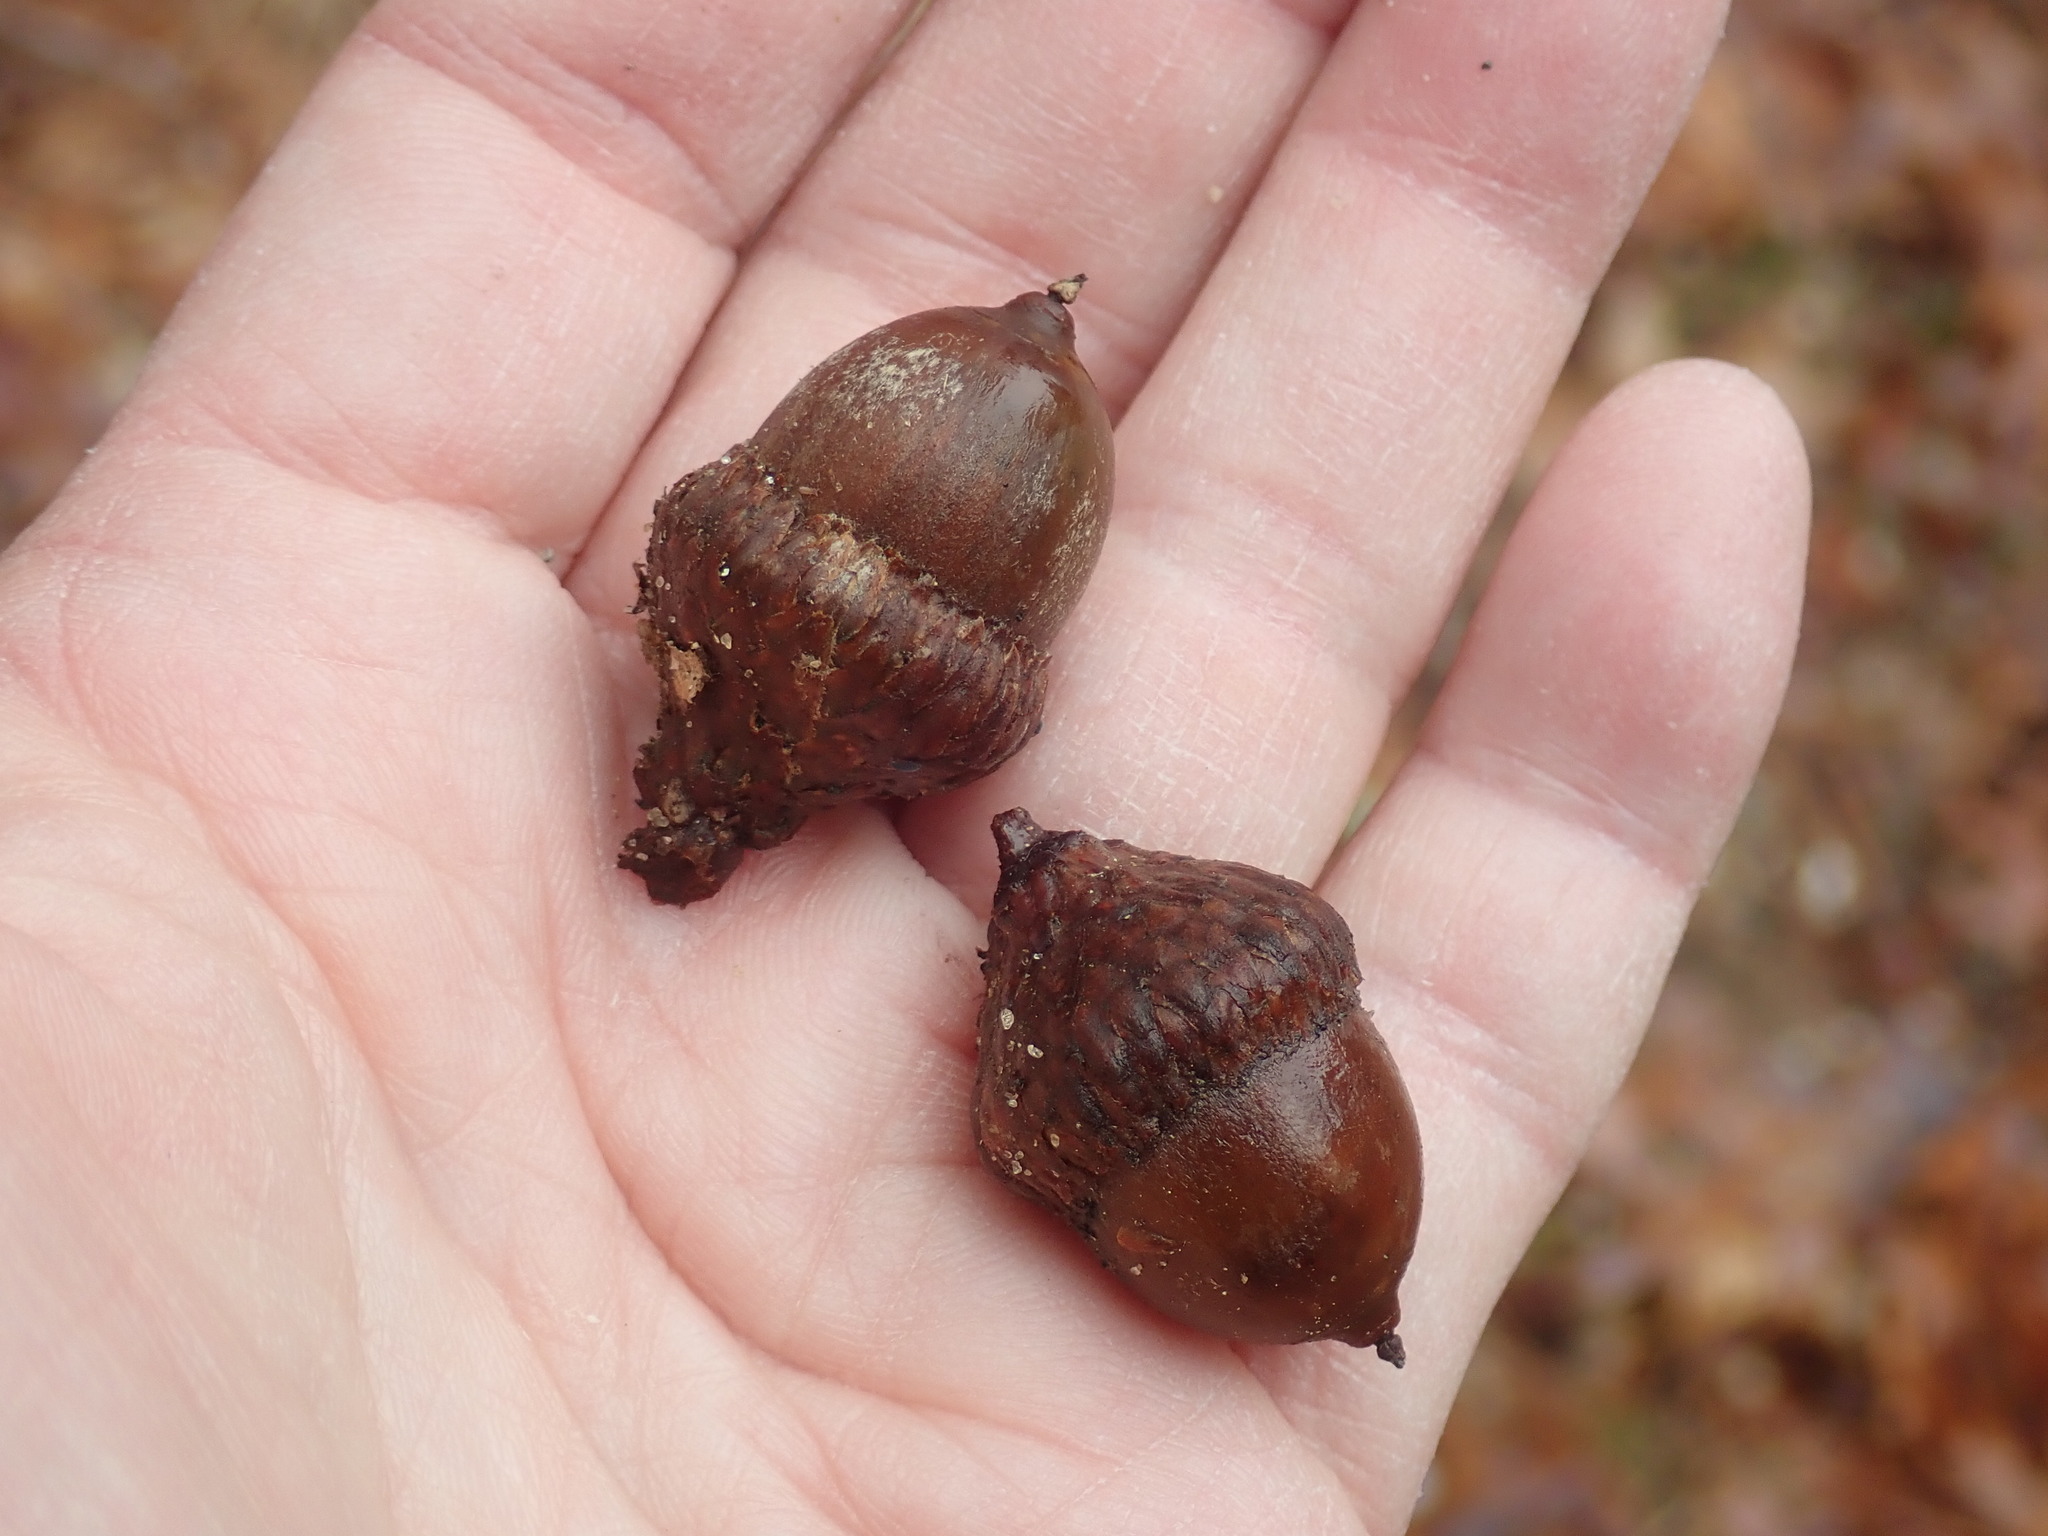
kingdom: Plantae
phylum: Tracheophyta
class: Magnoliopsida
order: Fagales
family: Fagaceae
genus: Quercus
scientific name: Quercus coccinea
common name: Scarlet oak
